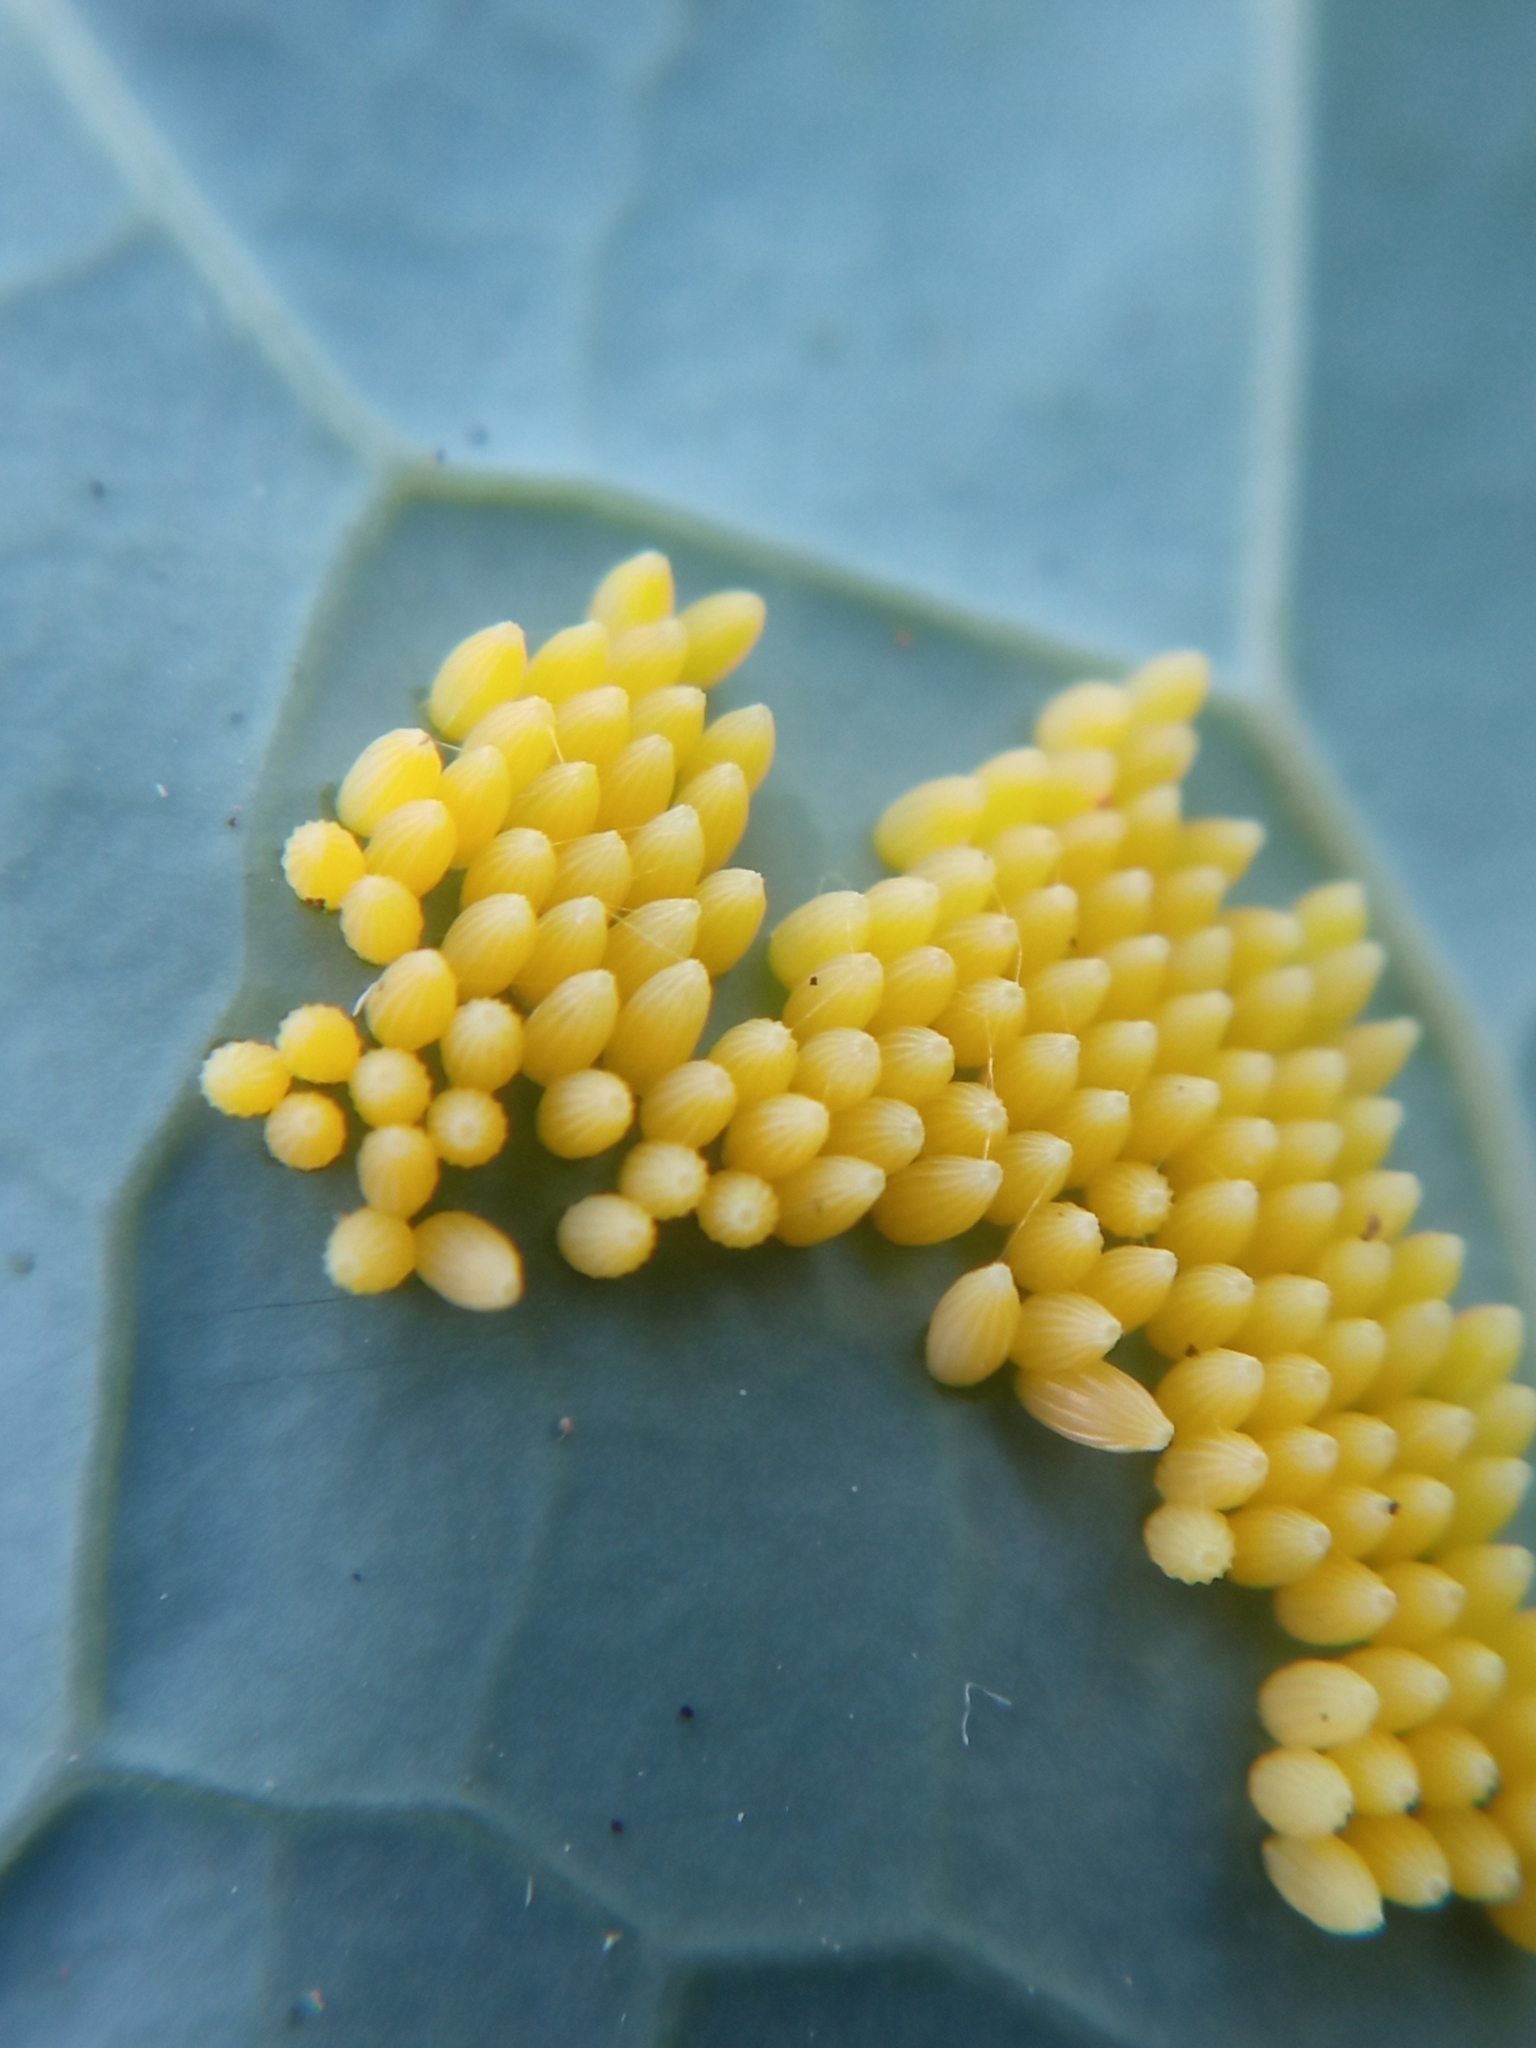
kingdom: Animalia
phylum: Arthropoda
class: Insecta
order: Lepidoptera
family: Pieridae
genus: Pieris
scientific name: Pieris brassicae
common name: Large white
